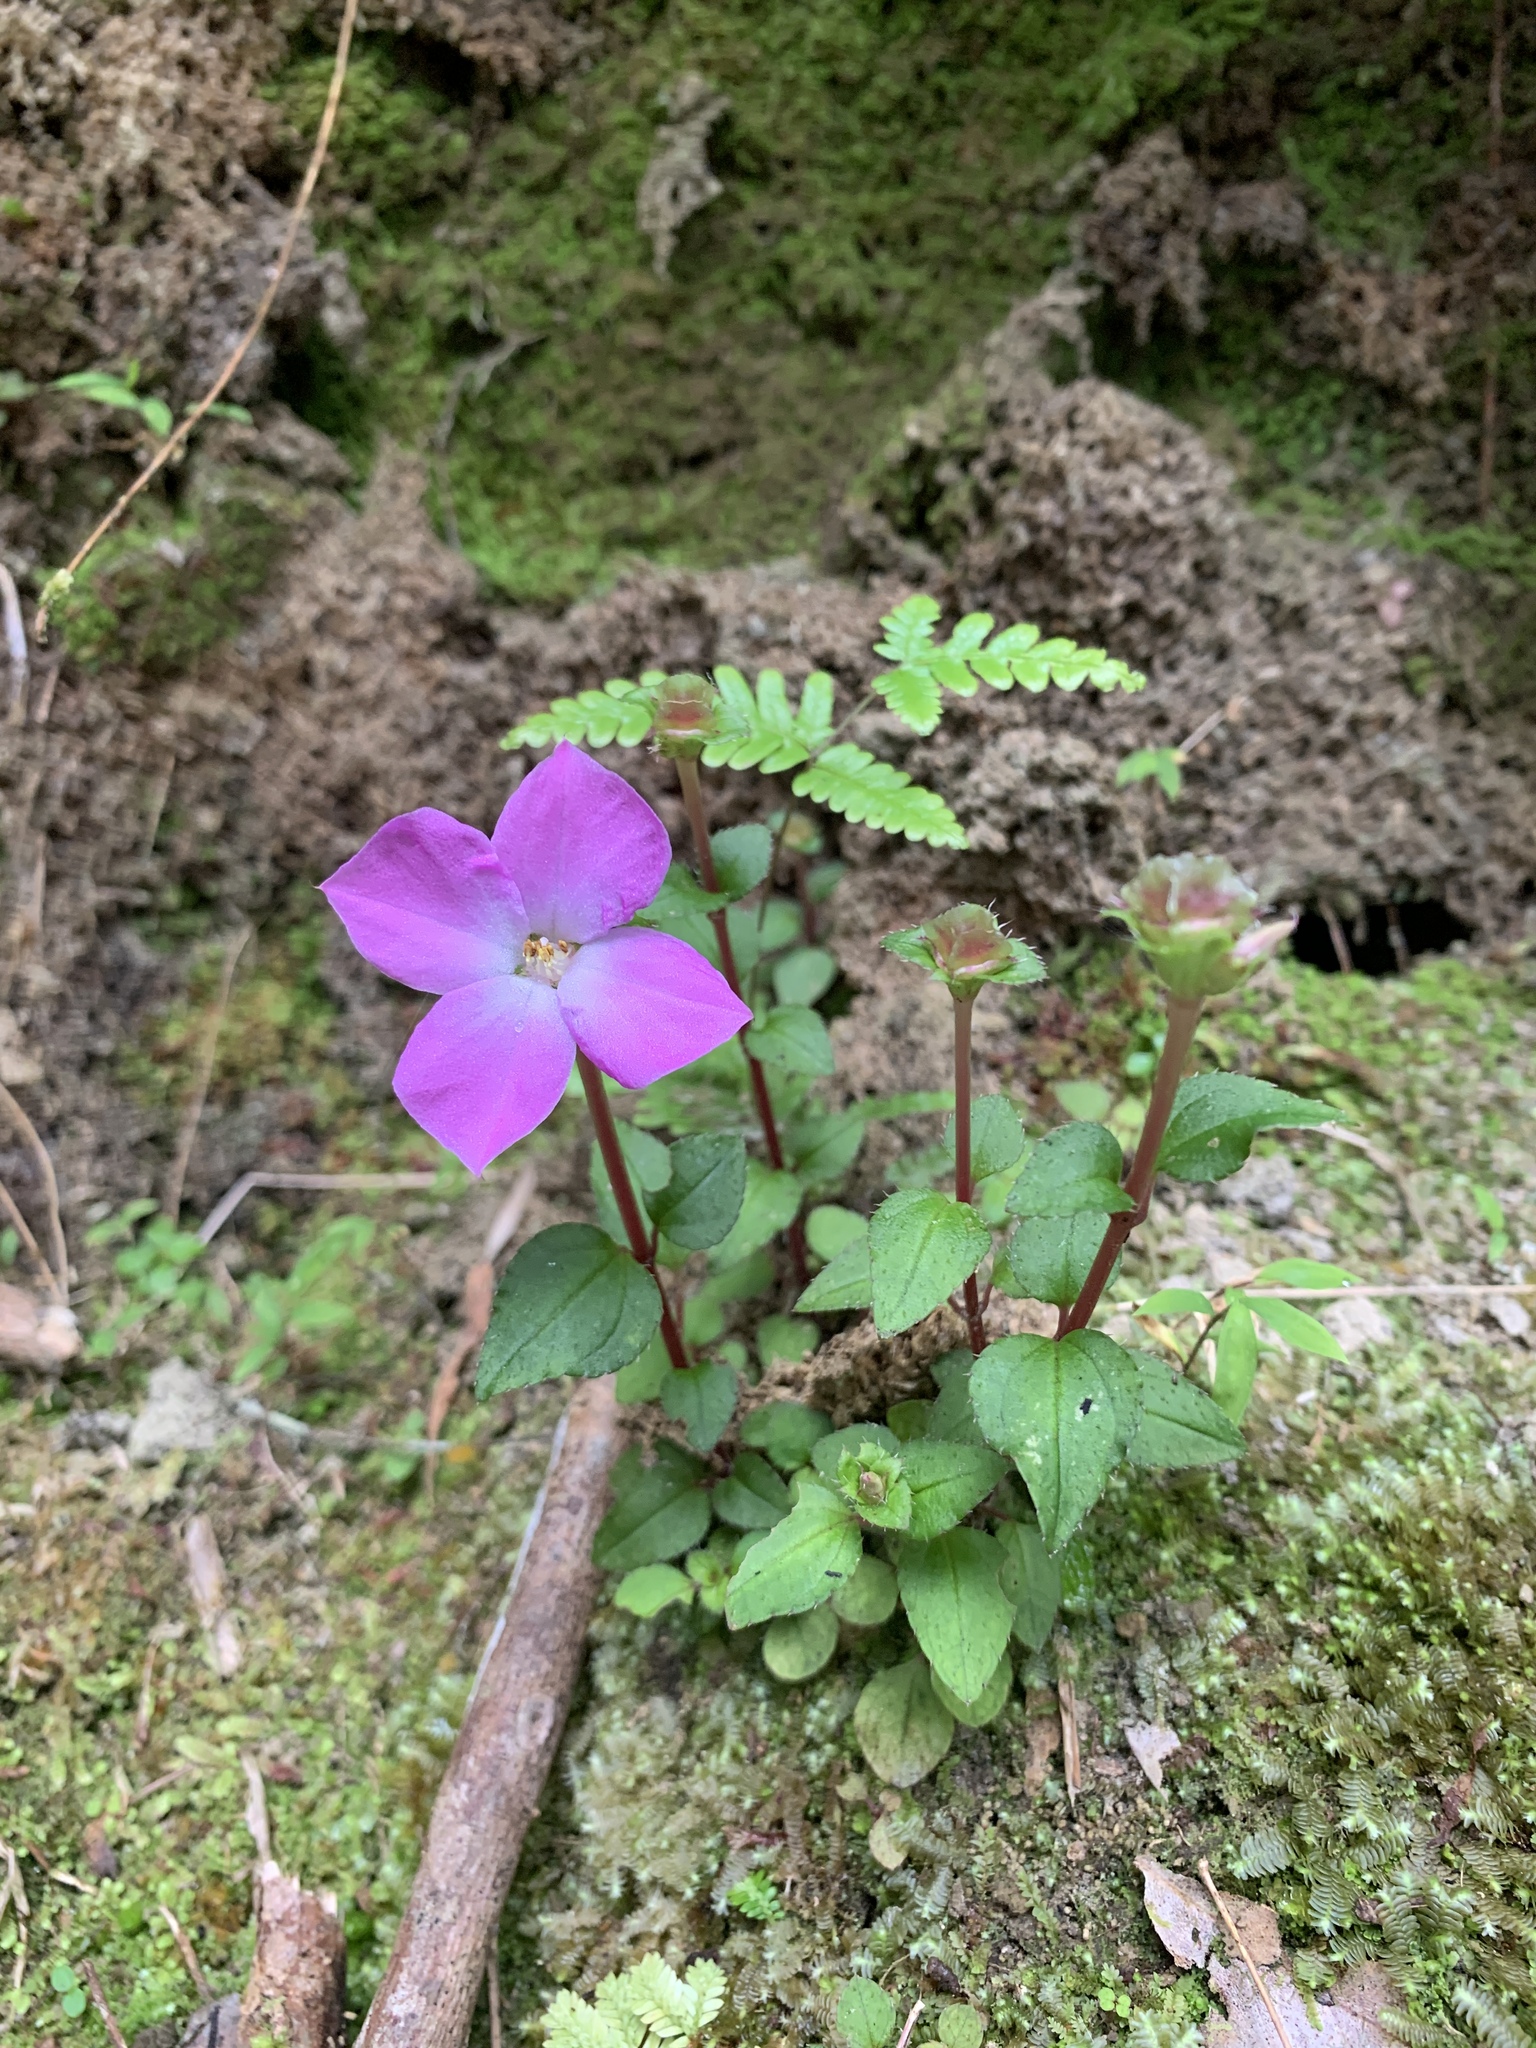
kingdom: Plantae
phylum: Tracheophyta
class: Magnoliopsida
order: Myrtales
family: Melastomataceae
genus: Sarcopyramis
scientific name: Sarcopyramis bodinieri
